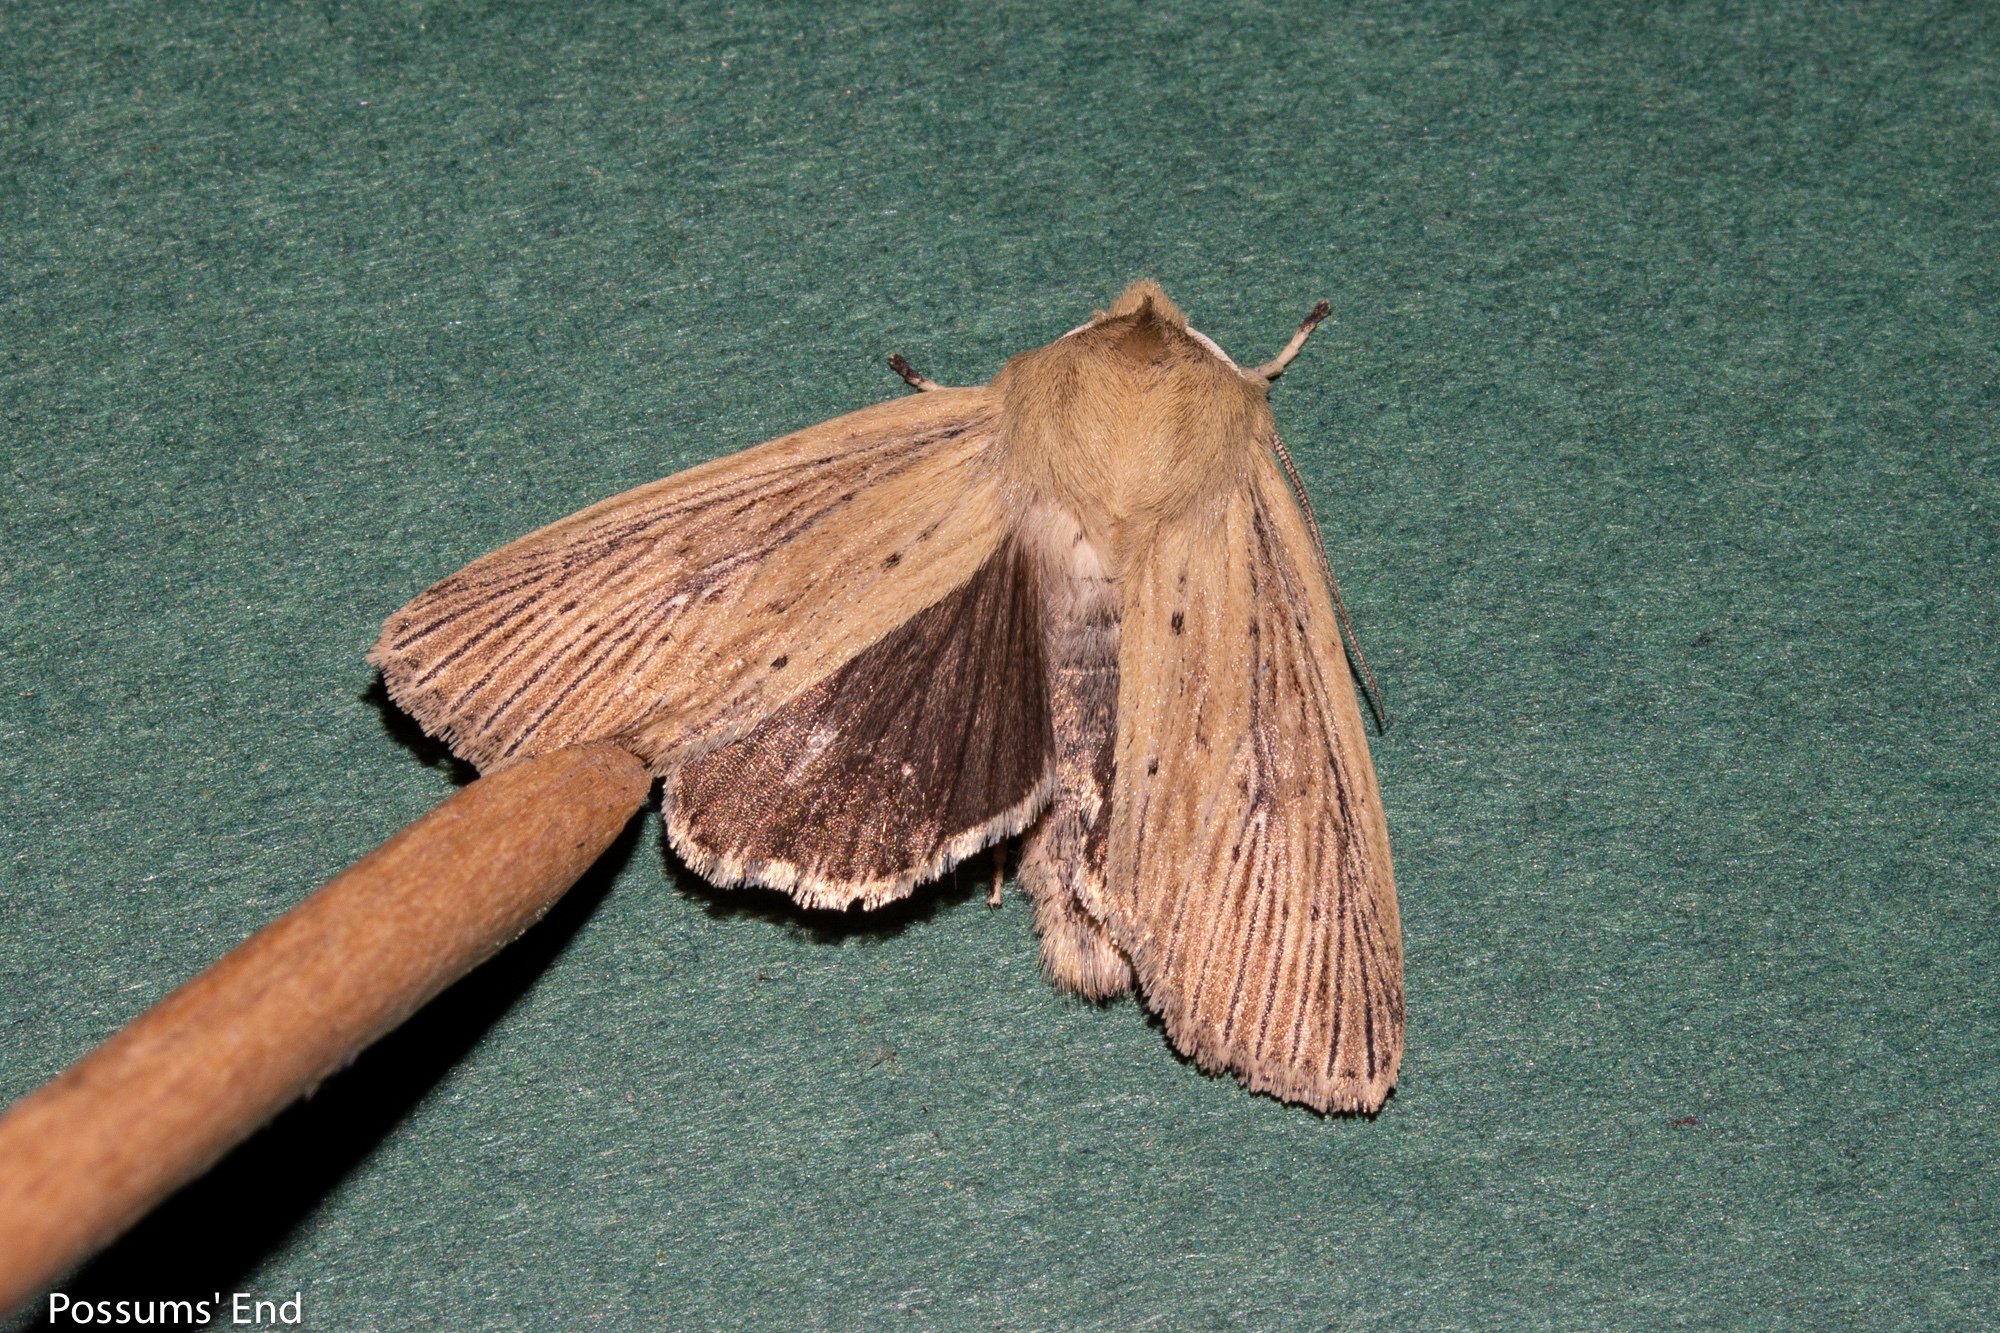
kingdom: Animalia
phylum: Arthropoda
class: Insecta
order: Lepidoptera
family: Noctuidae
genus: Ichneutica
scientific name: Ichneutica arotis
